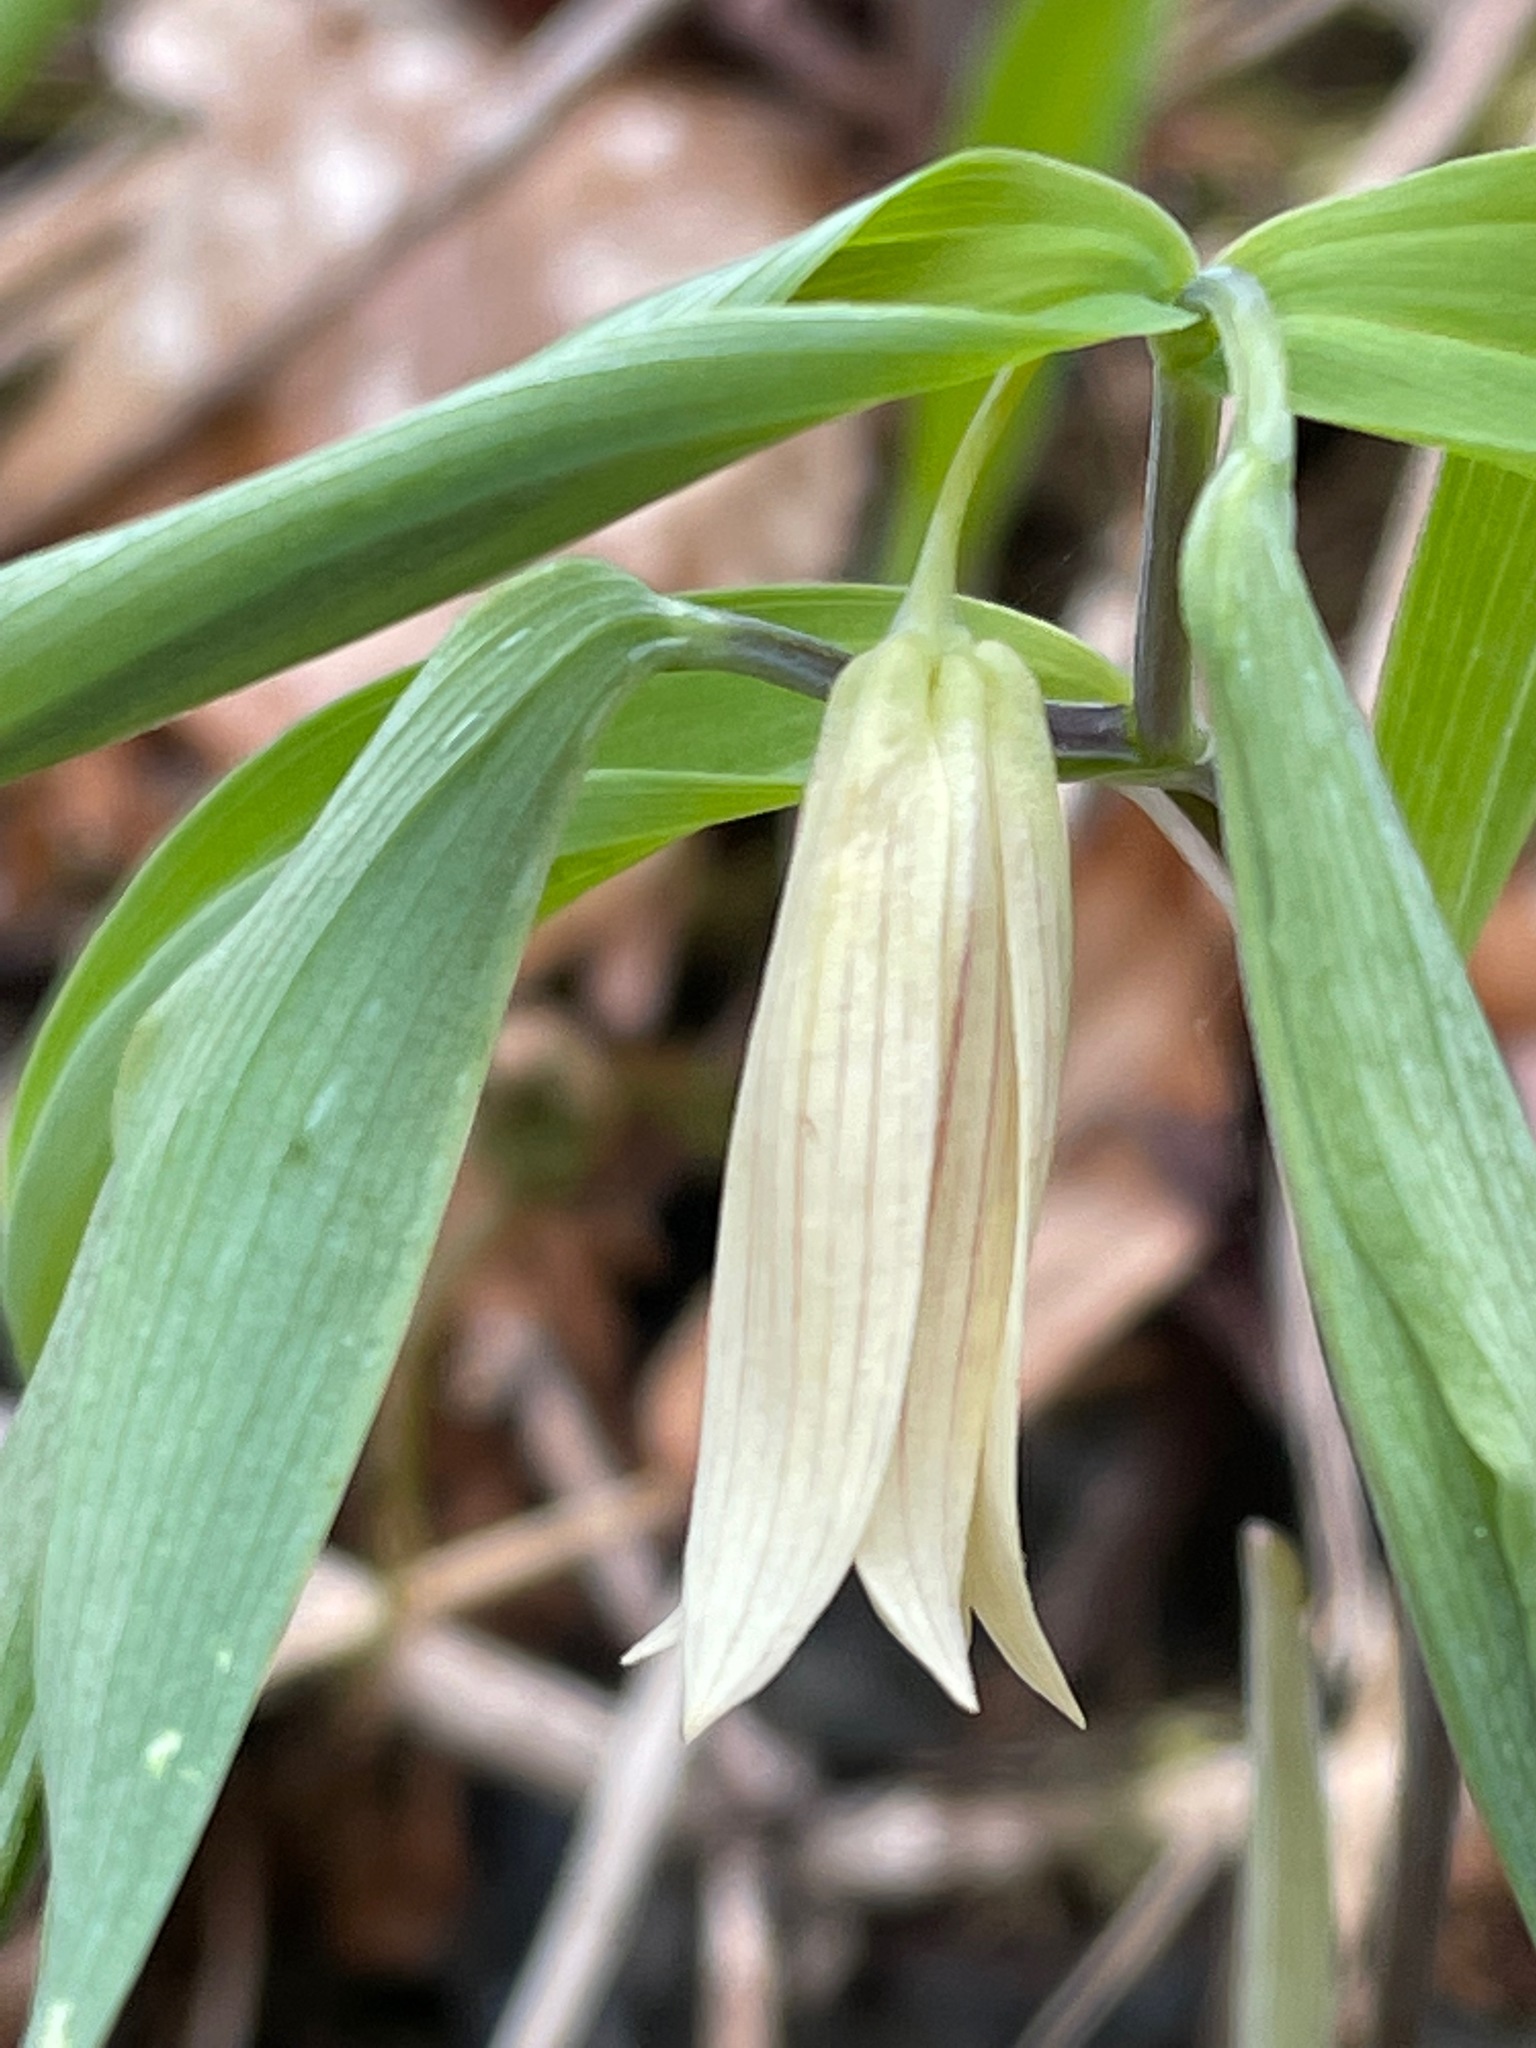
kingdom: Plantae
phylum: Tracheophyta
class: Liliopsida
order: Liliales
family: Colchicaceae
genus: Uvularia
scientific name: Uvularia sessilifolia
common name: Straw-lily
